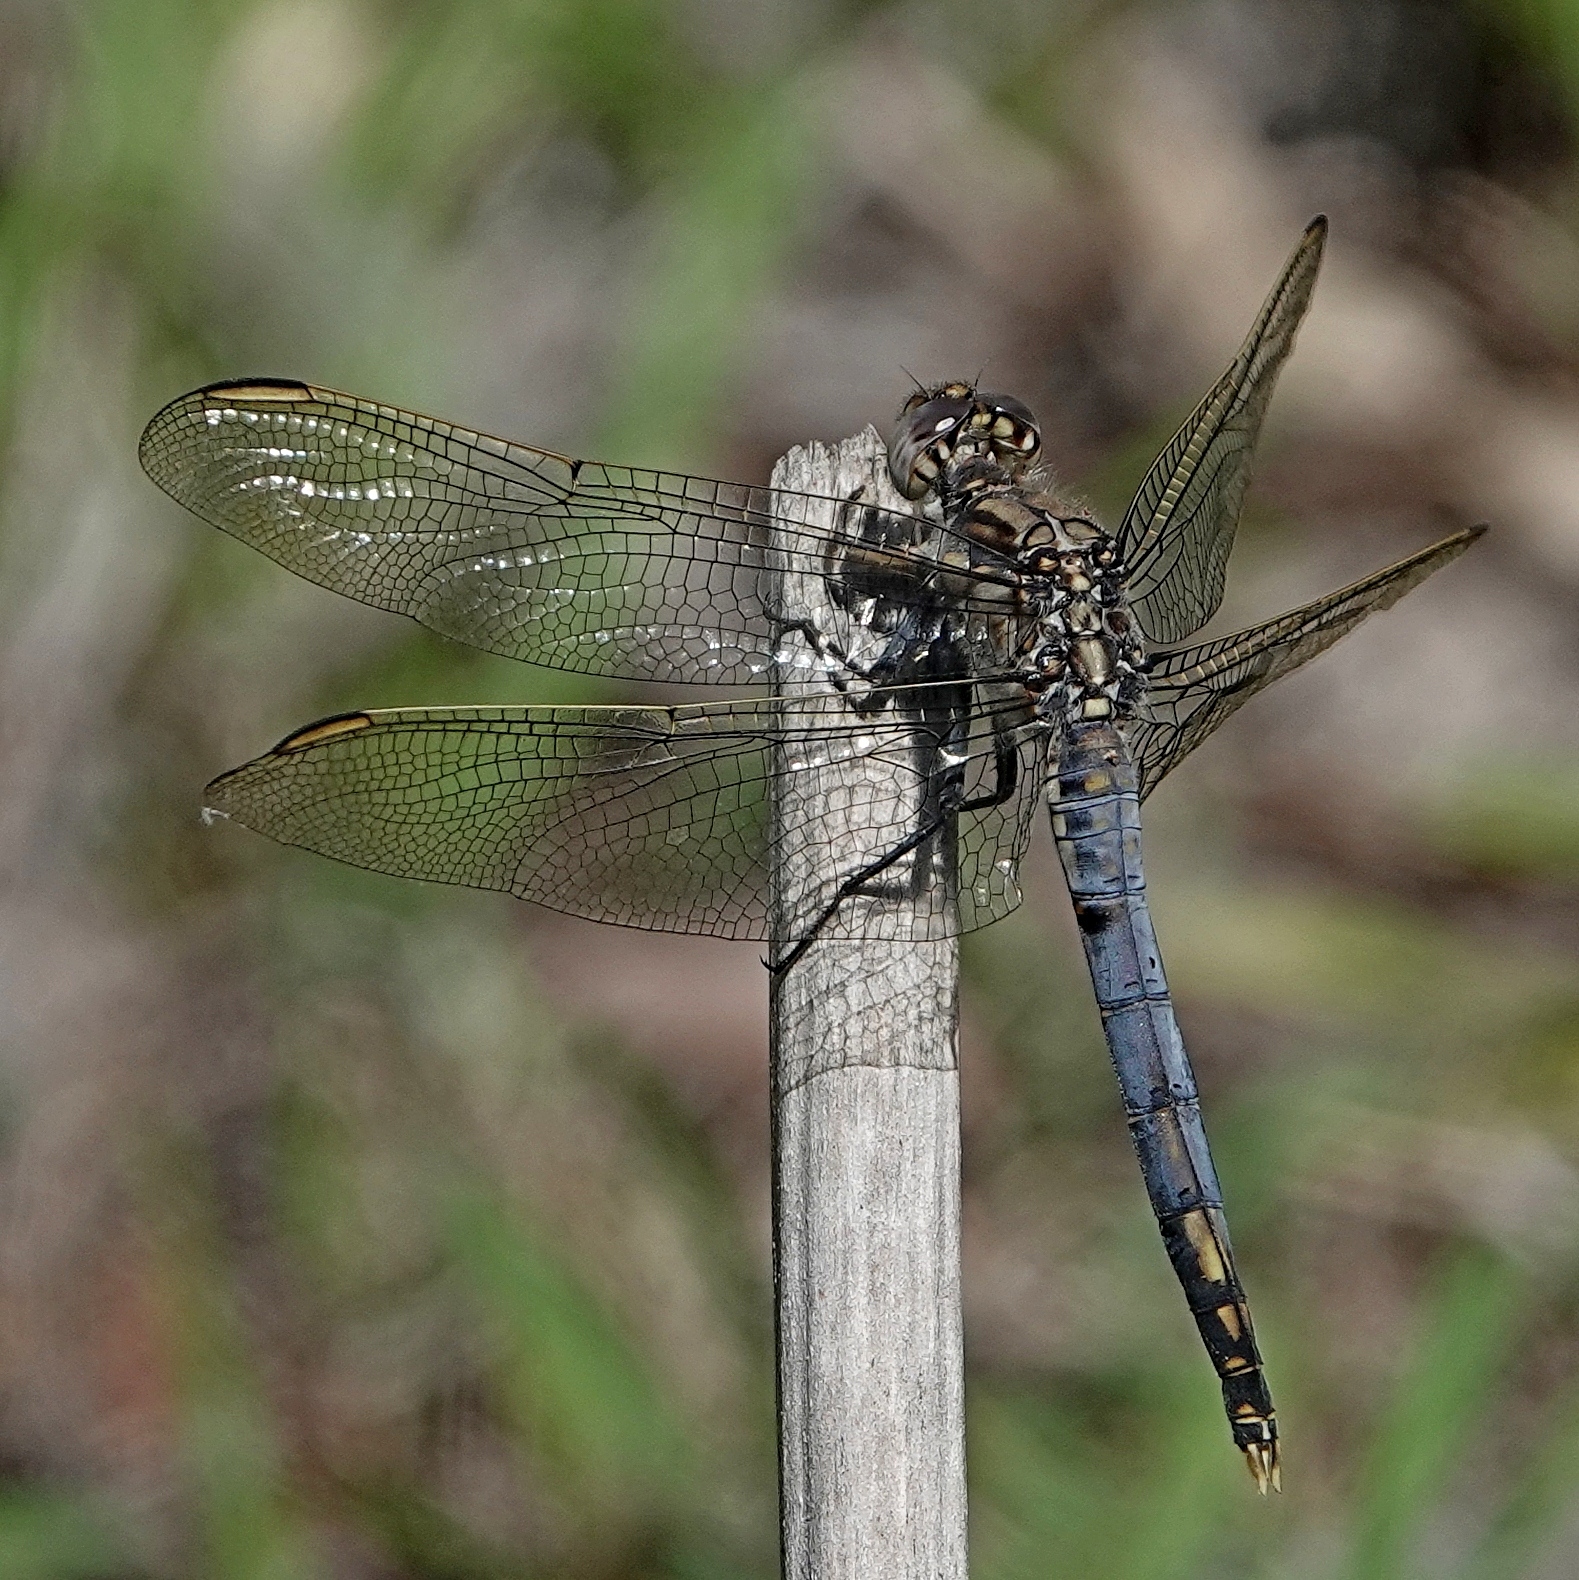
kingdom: Animalia
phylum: Arthropoda
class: Insecta
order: Odonata
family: Libellulidae
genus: Orthetrum
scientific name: Orthetrum caledonicum
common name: Blue skimmer
